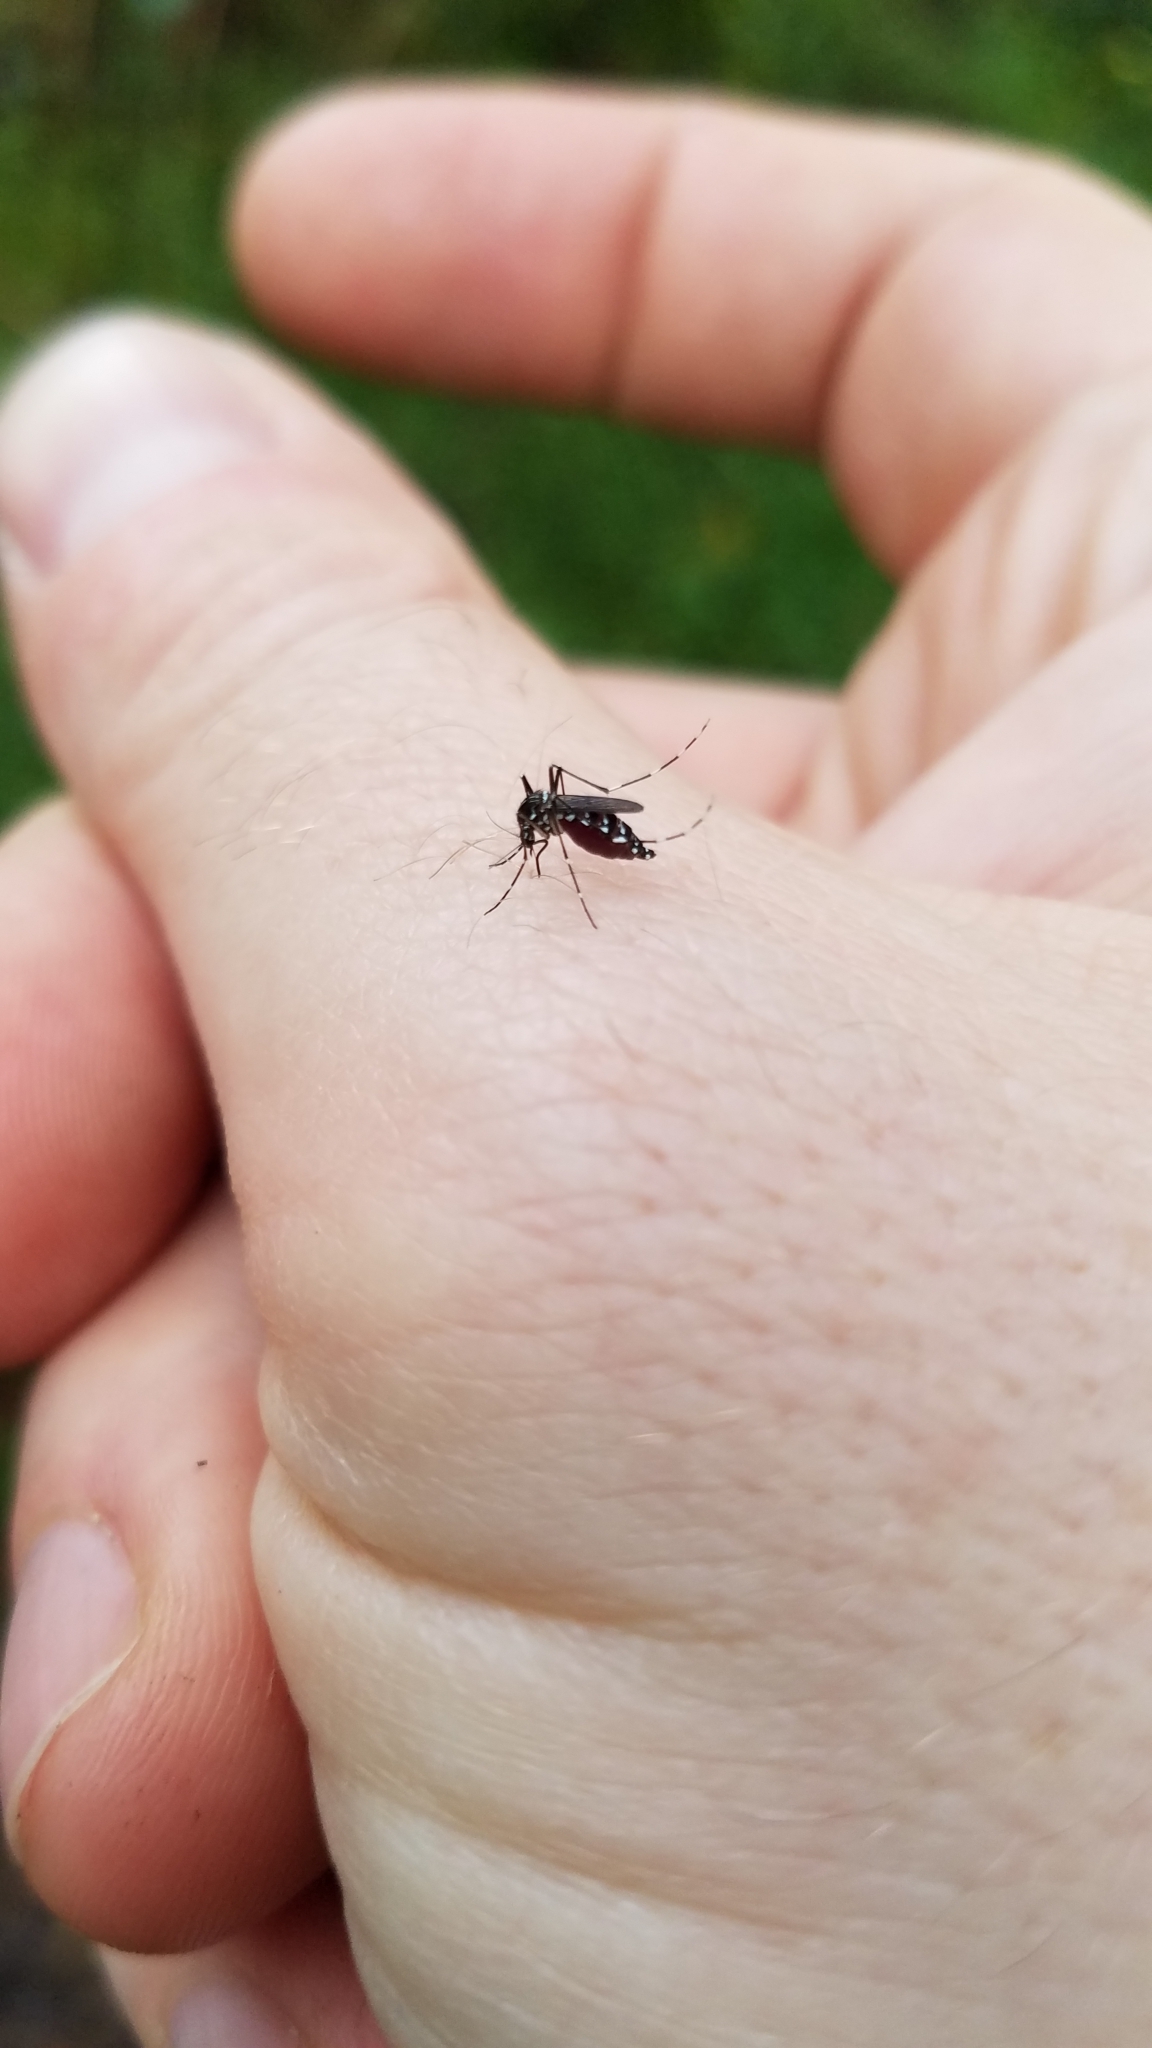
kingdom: Animalia
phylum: Arthropoda
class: Insecta
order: Diptera
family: Culicidae
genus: Aedes
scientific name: Aedes albopictus
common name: Tiger mosquito
